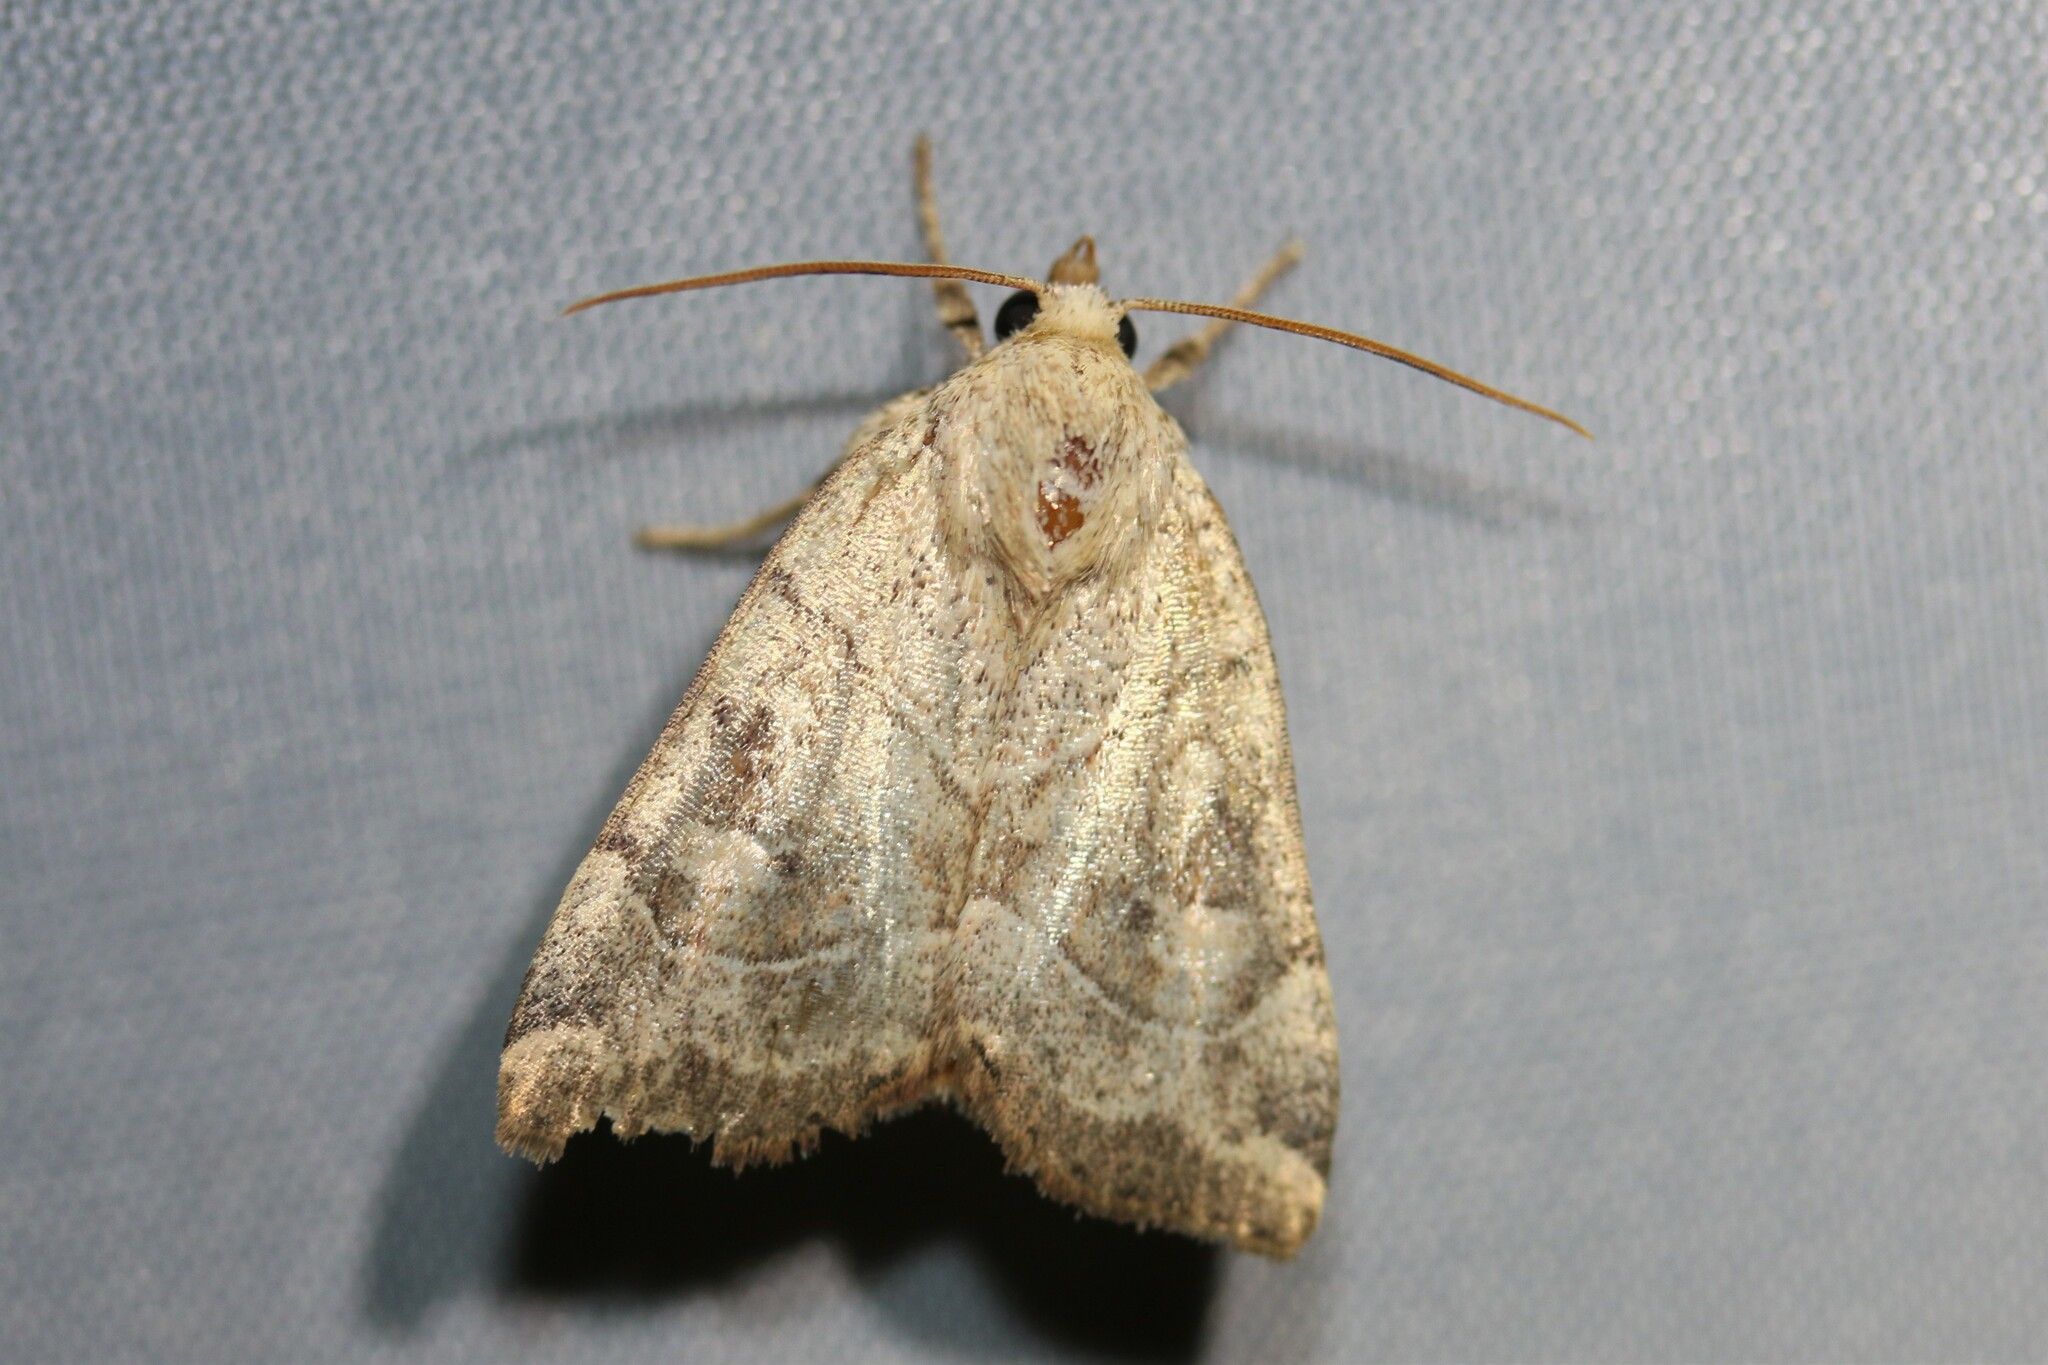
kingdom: Animalia
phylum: Arthropoda
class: Insecta
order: Lepidoptera
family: Noctuidae
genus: Cosmia
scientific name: Cosmia trapezina
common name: Dun-bar
